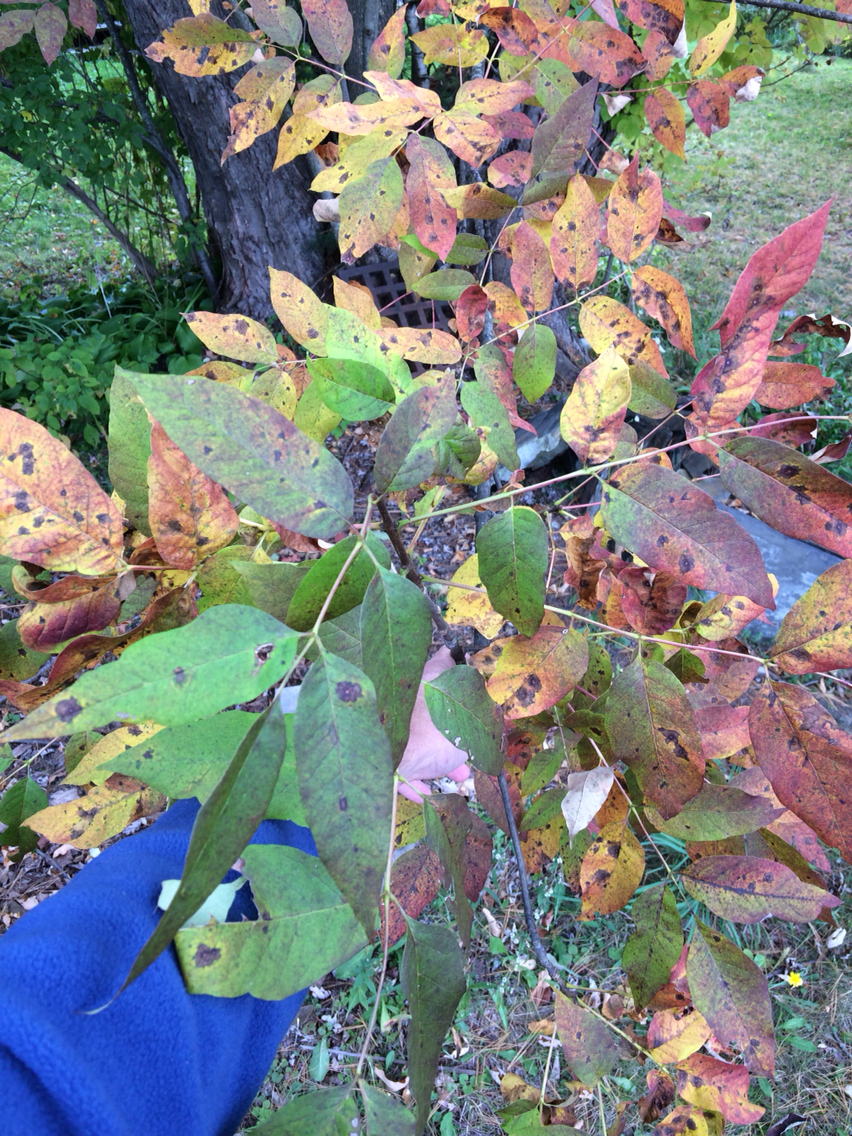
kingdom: Plantae
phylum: Tracheophyta
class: Magnoliopsida
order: Lamiales
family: Oleaceae
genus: Fraxinus
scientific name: Fraxinus americana
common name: White ash
